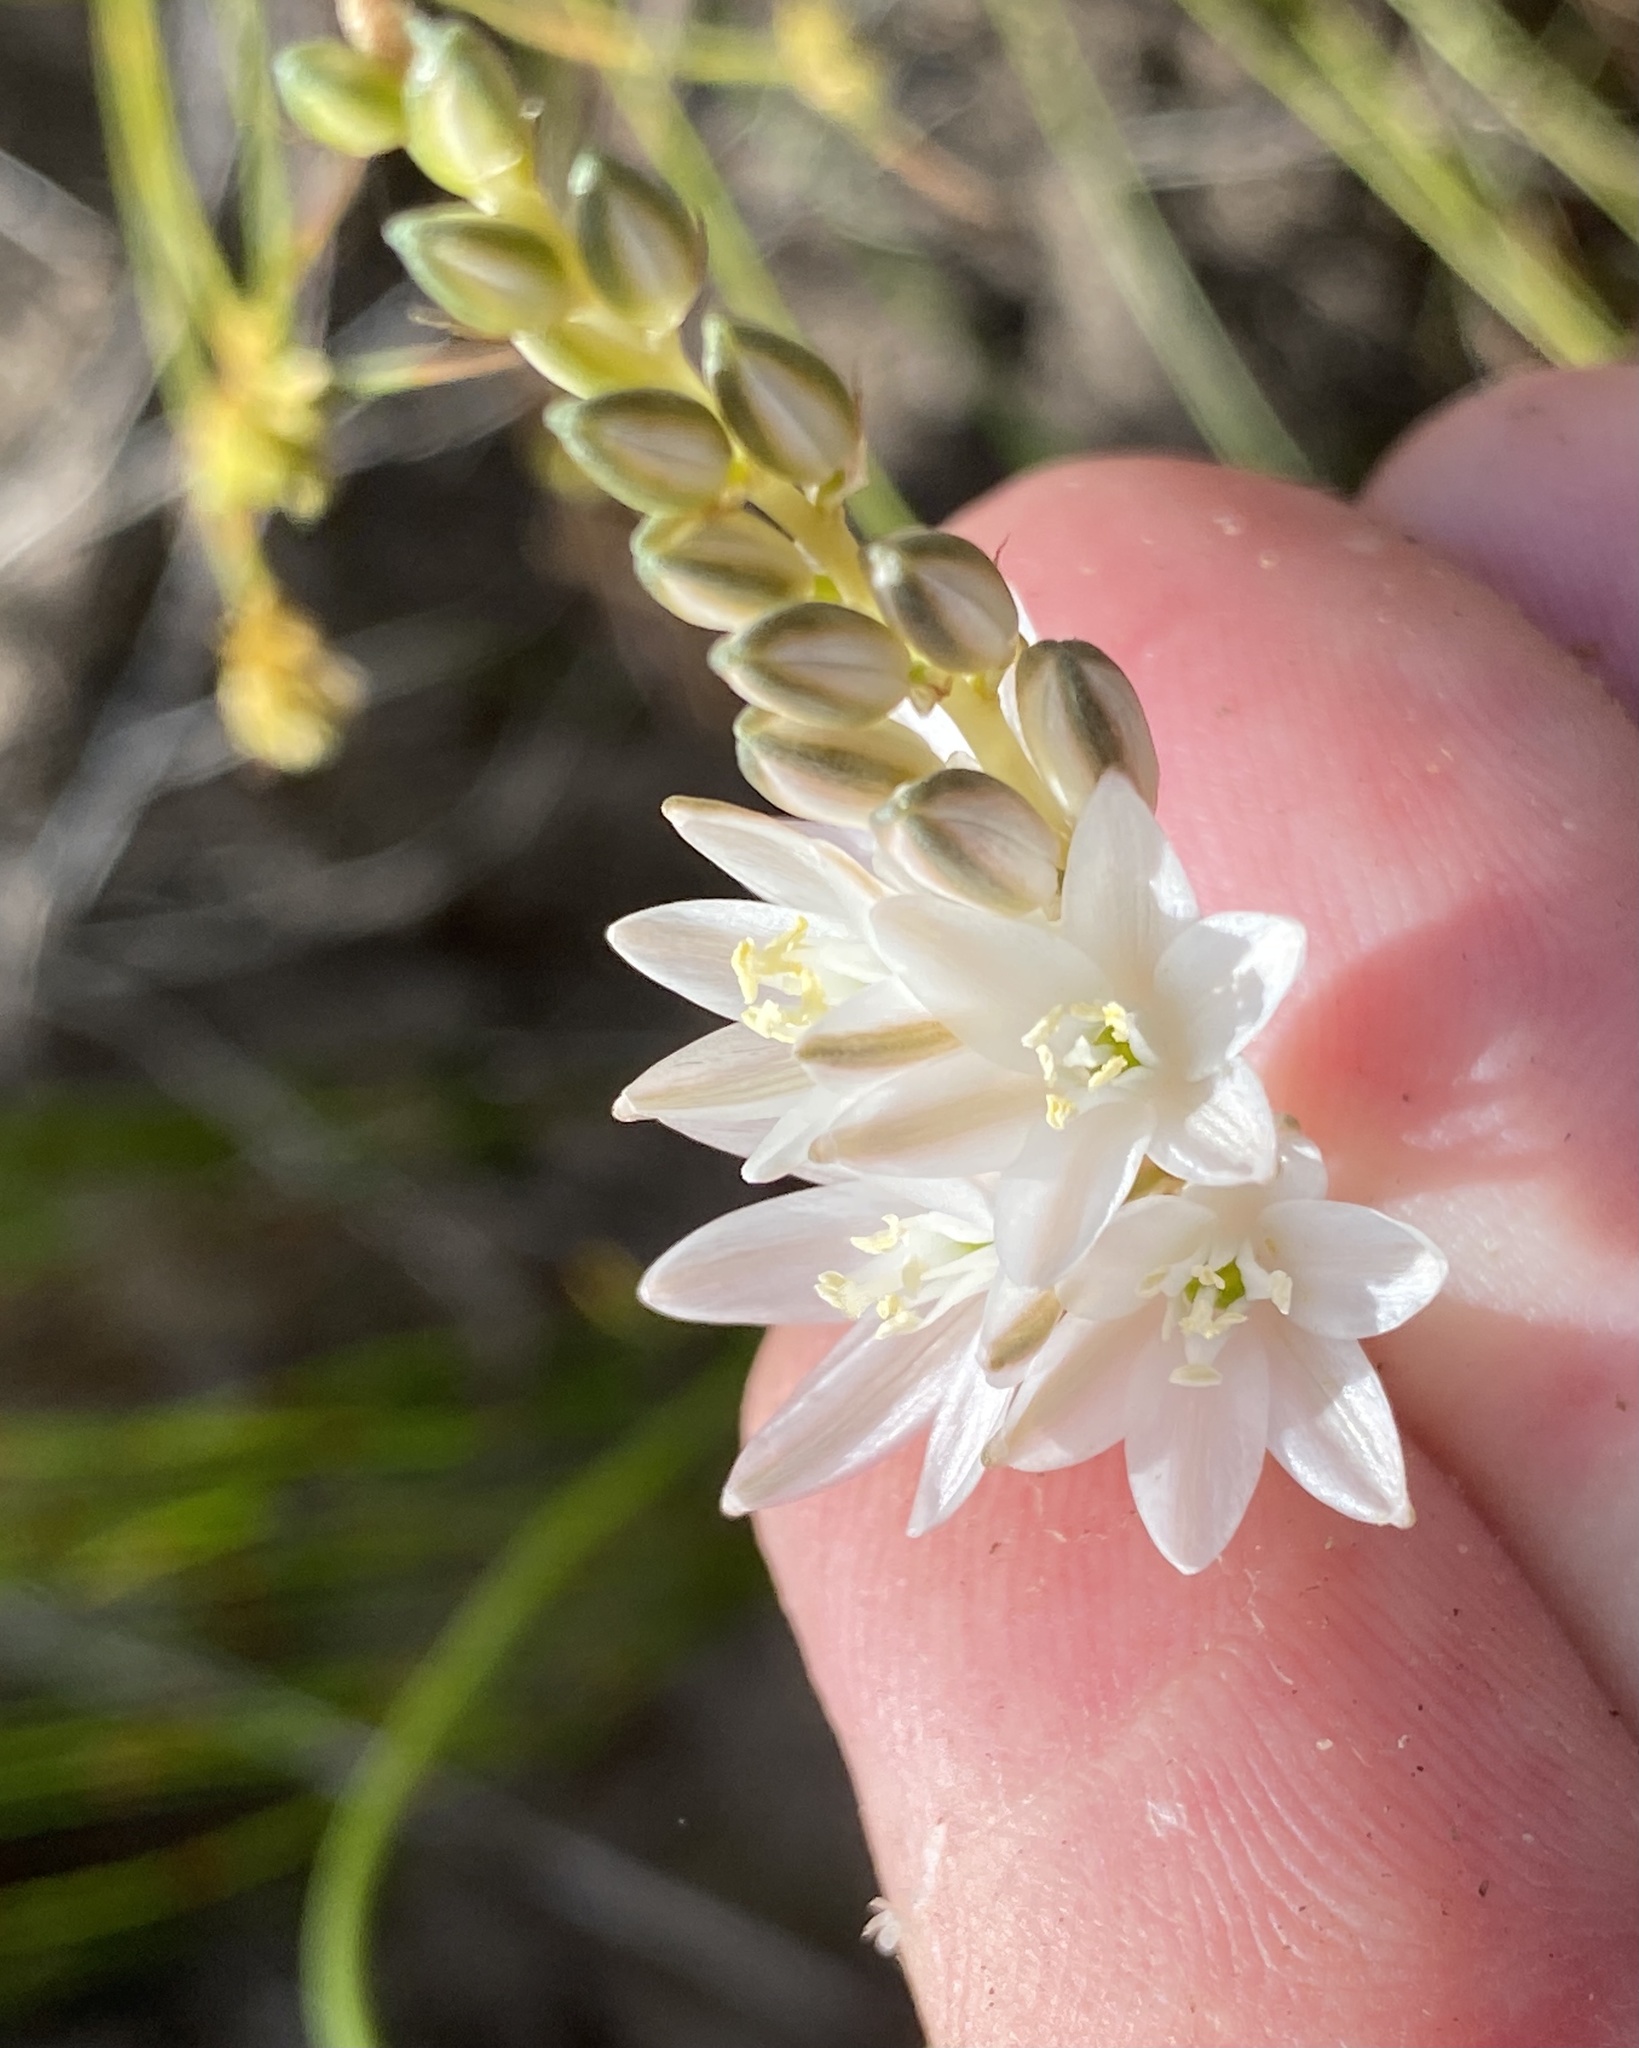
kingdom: Plantae
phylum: Tracheophyta
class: Liliopsida
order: Asparagales
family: Asparagaceae
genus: Ornithogalum
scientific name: Ornithogalum graminifolium
